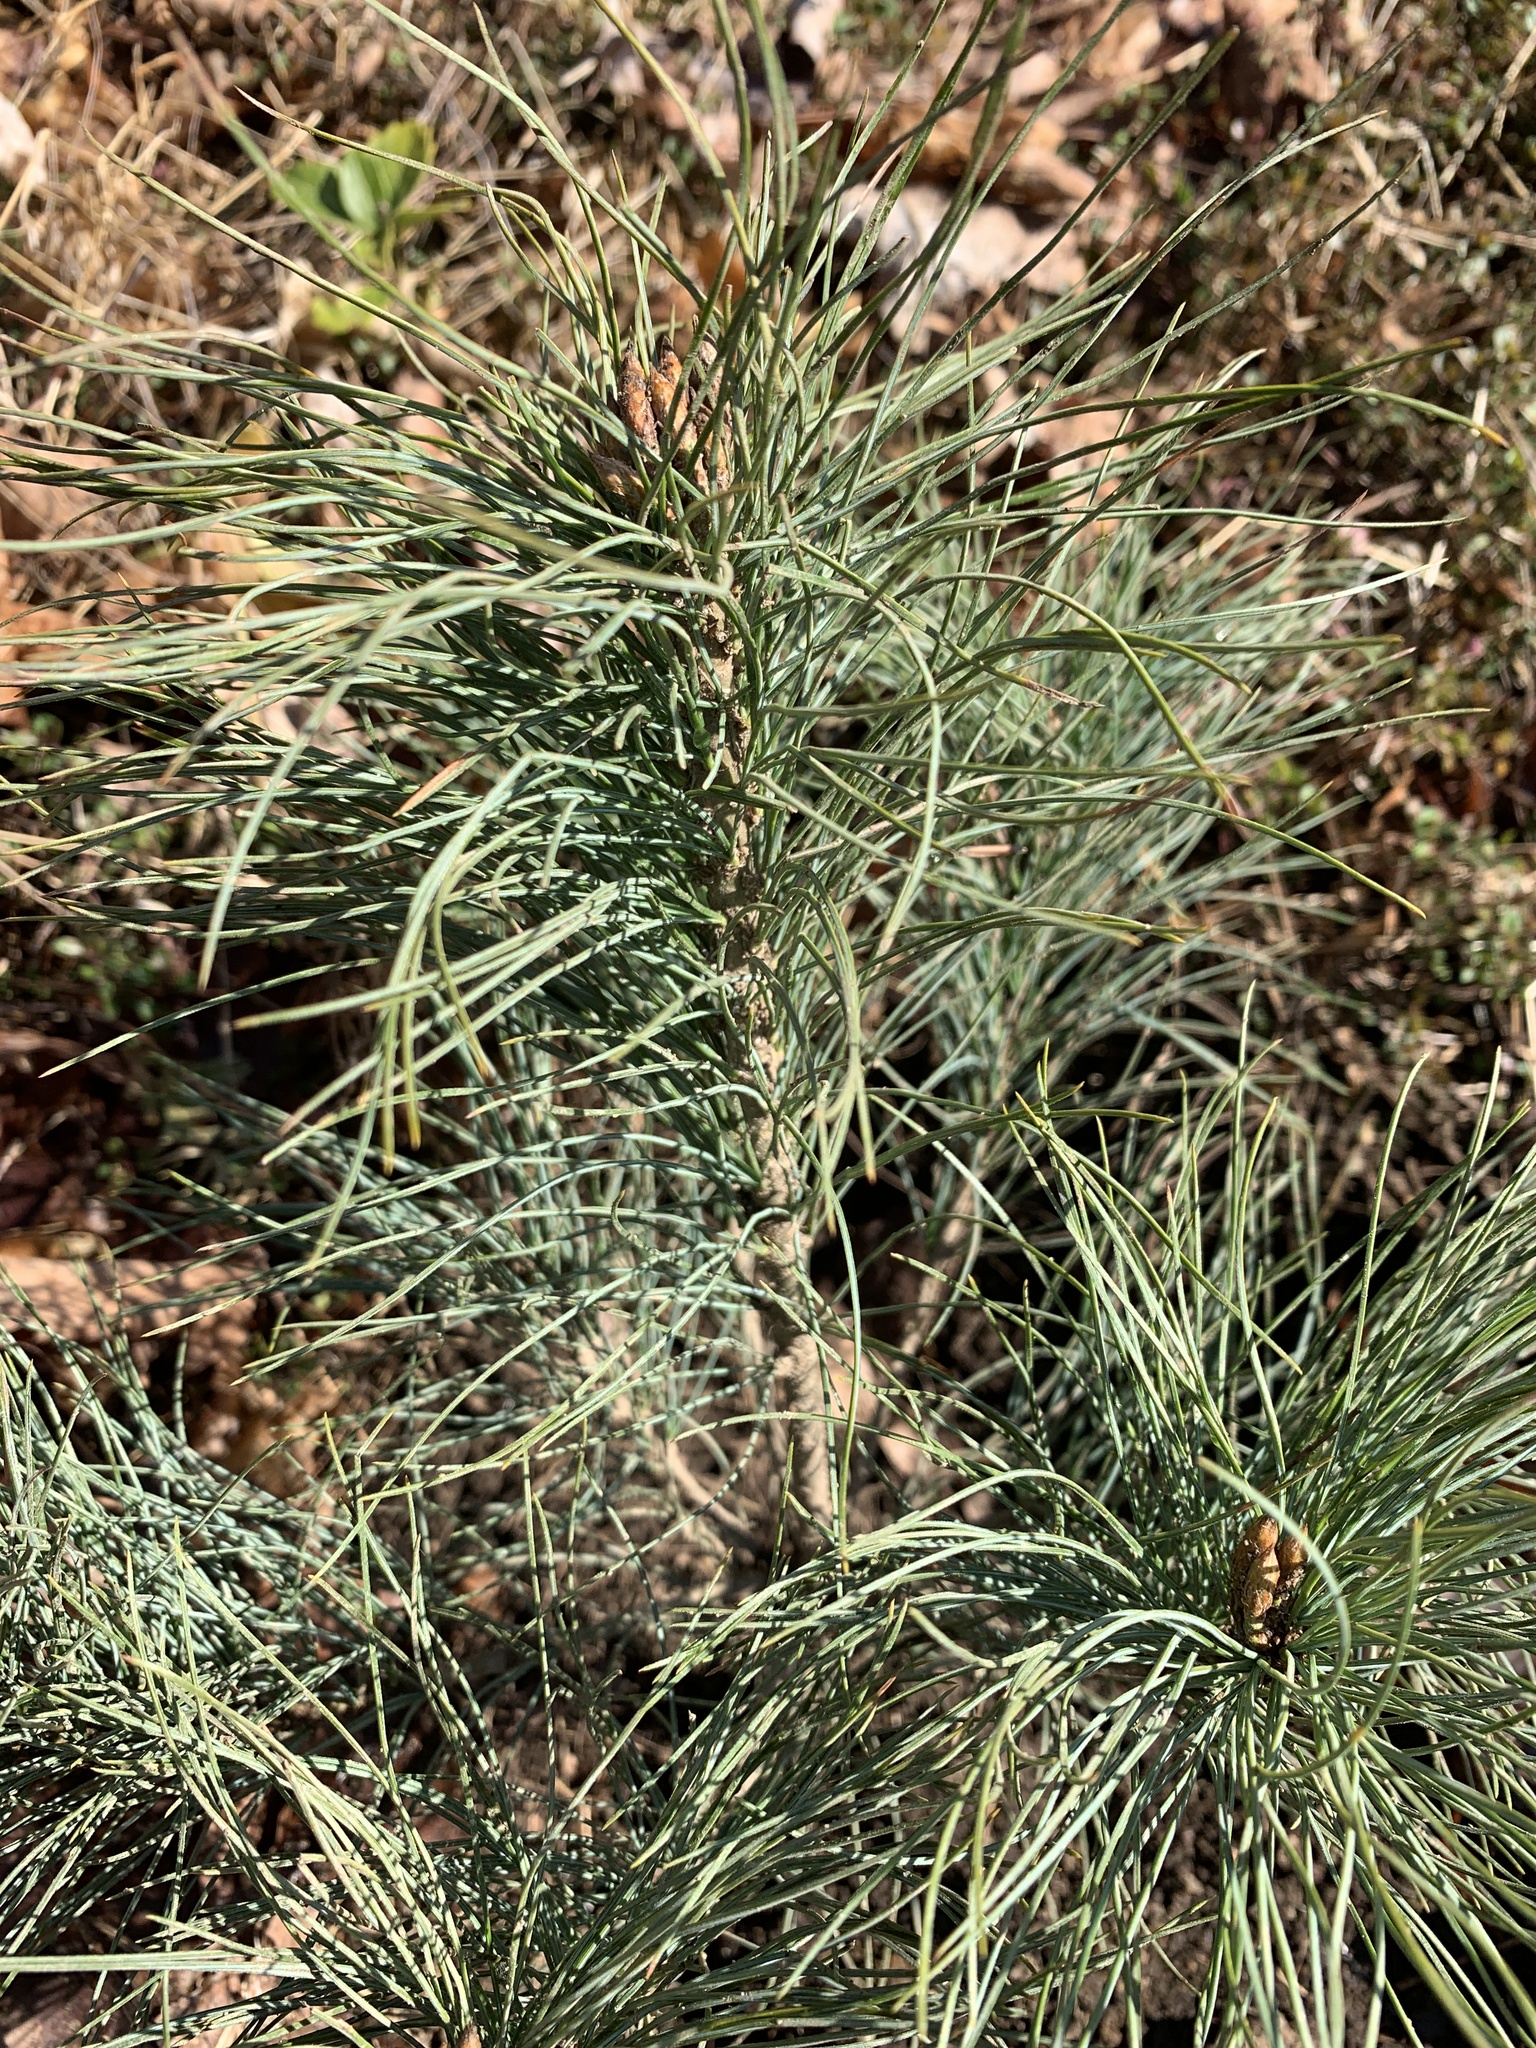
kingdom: Plantae
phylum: Tracheophyta
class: Pinopsida
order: Pinales
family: Pinaceae
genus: Pinus
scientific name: Pinus strobus
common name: Weymouth pine
